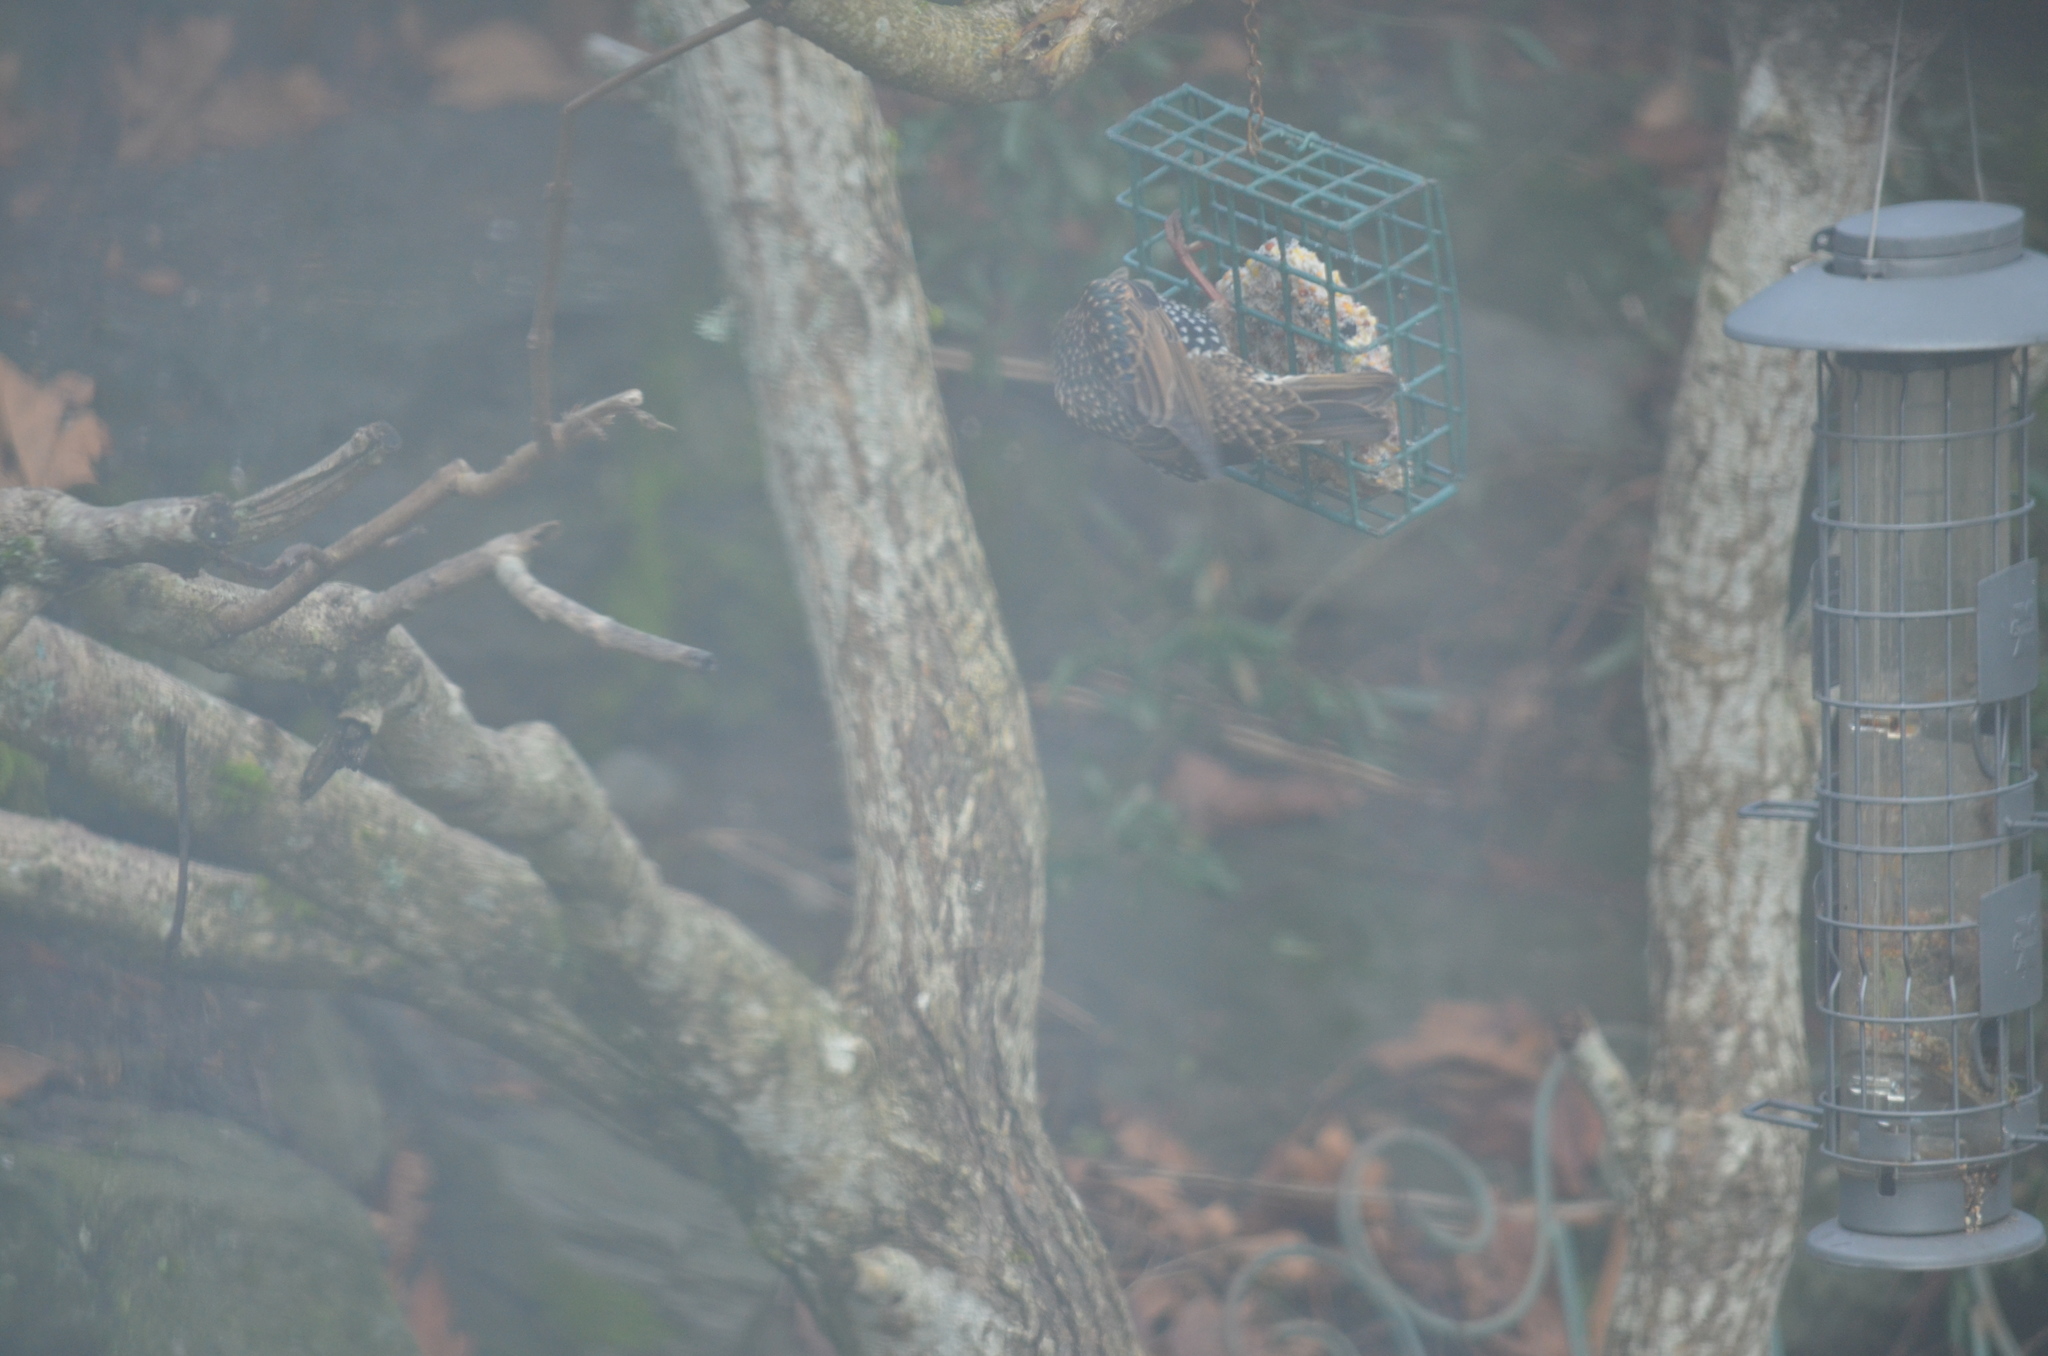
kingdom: Animalia
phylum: Chordata
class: Aves
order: Passeriformes
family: Sturnidae
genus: Sturnus
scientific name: Sturnus vulgaris
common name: Common starling
